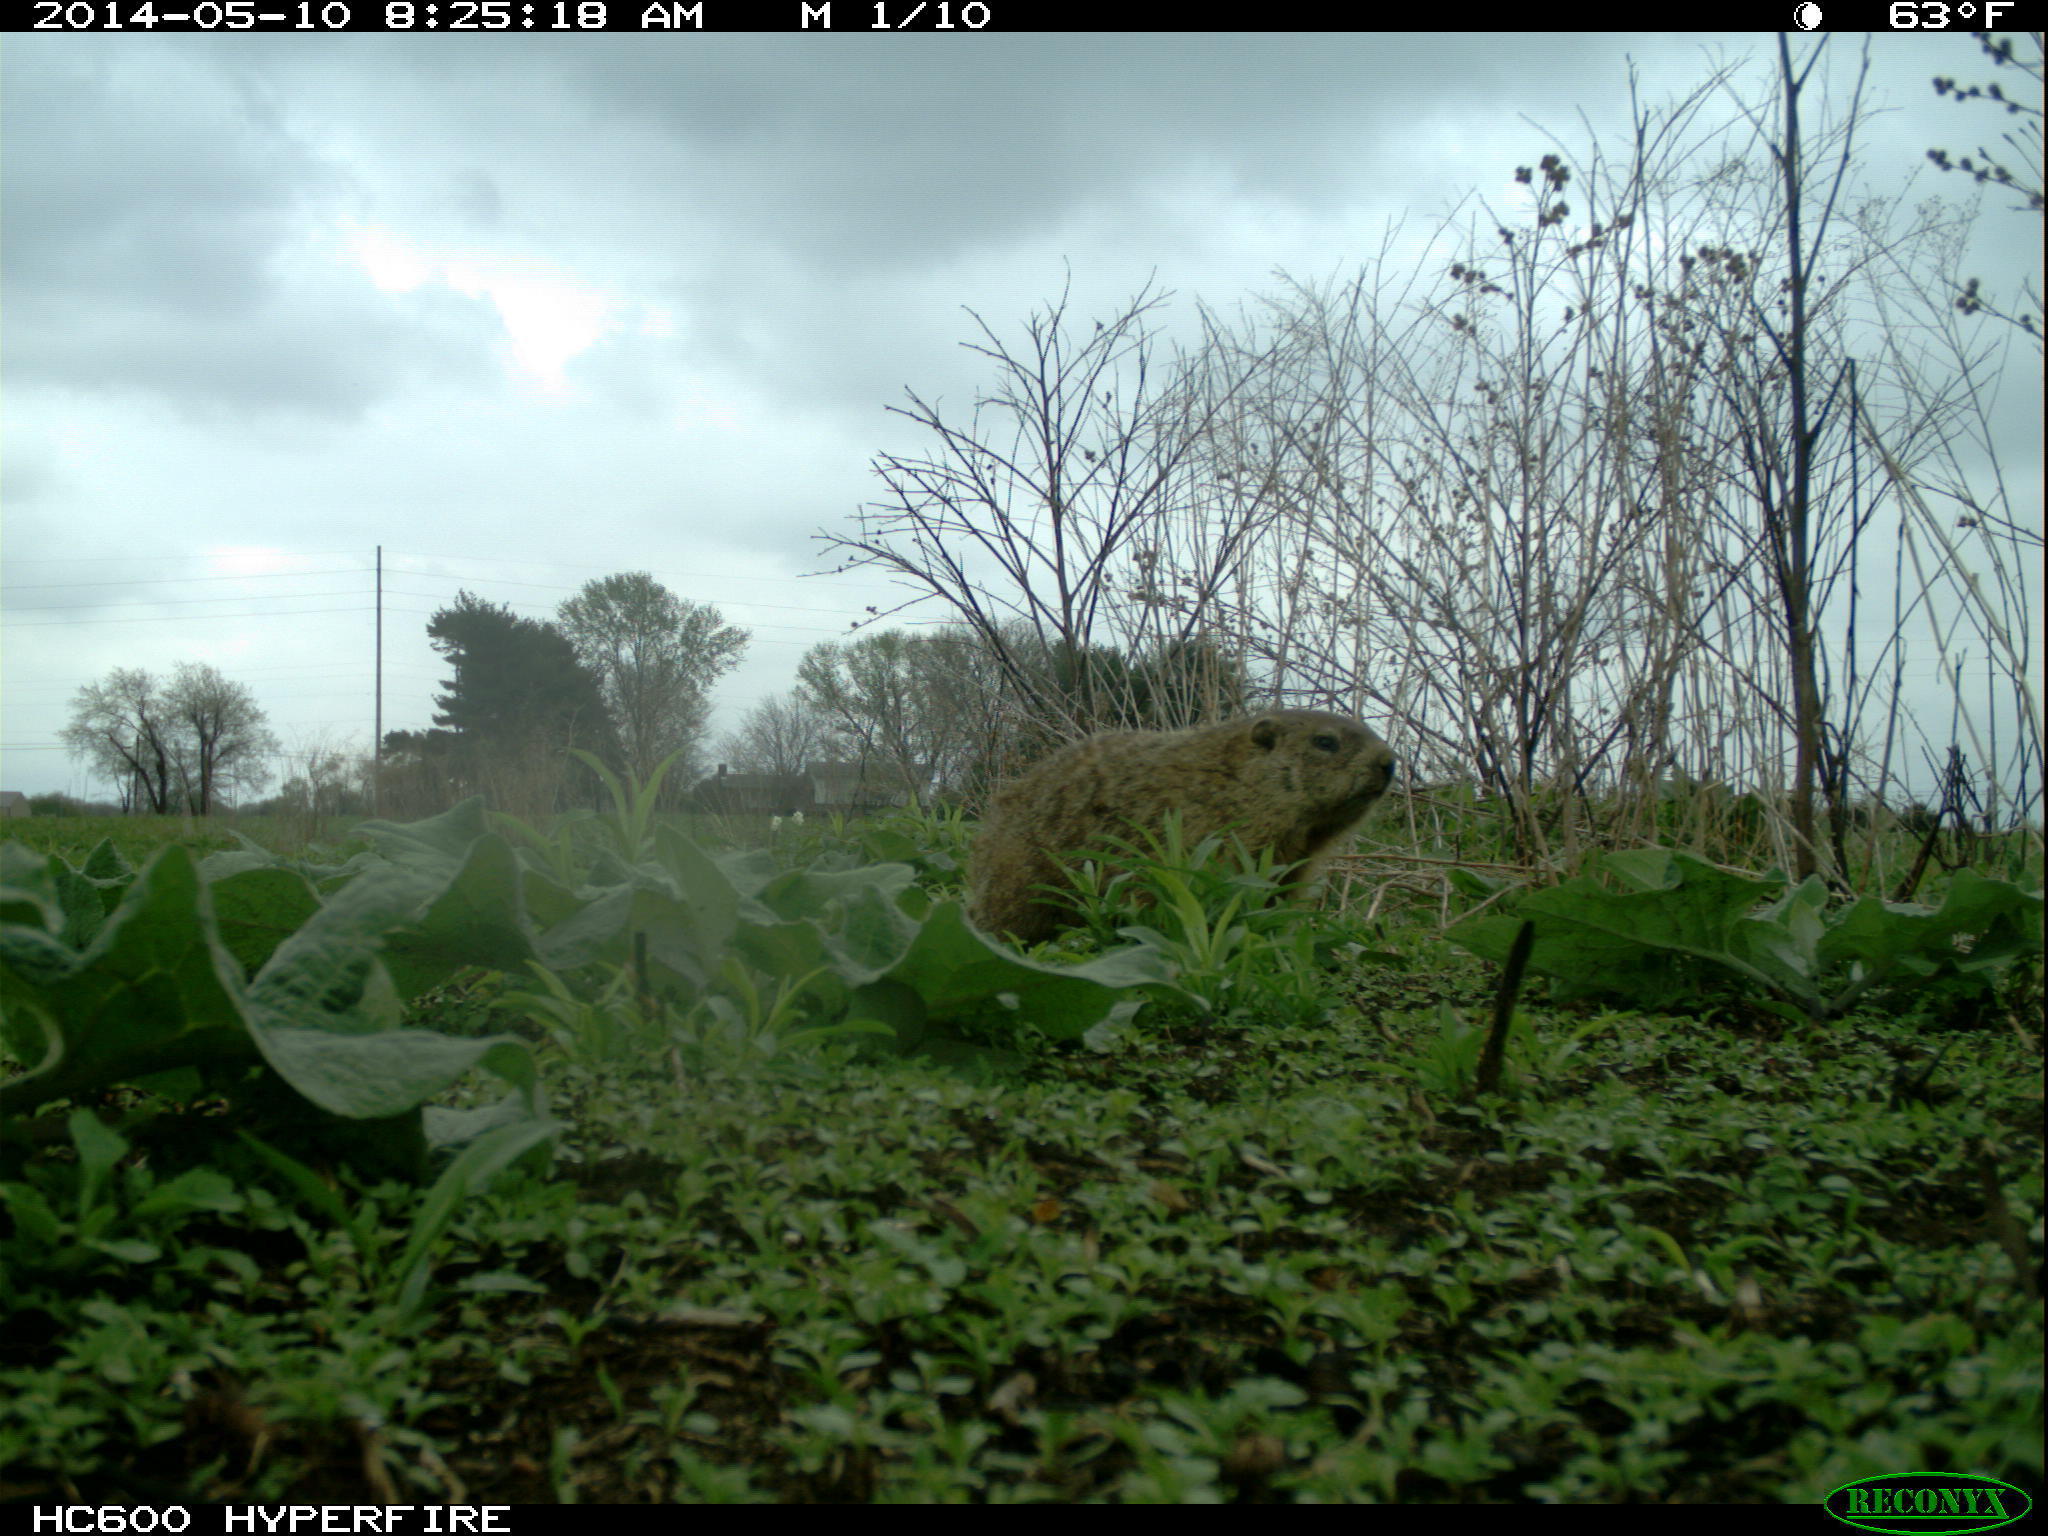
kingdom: Animalia
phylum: Chordata
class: Mammalia
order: Rodentia
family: Sciuridae
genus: Marmota
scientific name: Marmota monax
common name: Groundhog
